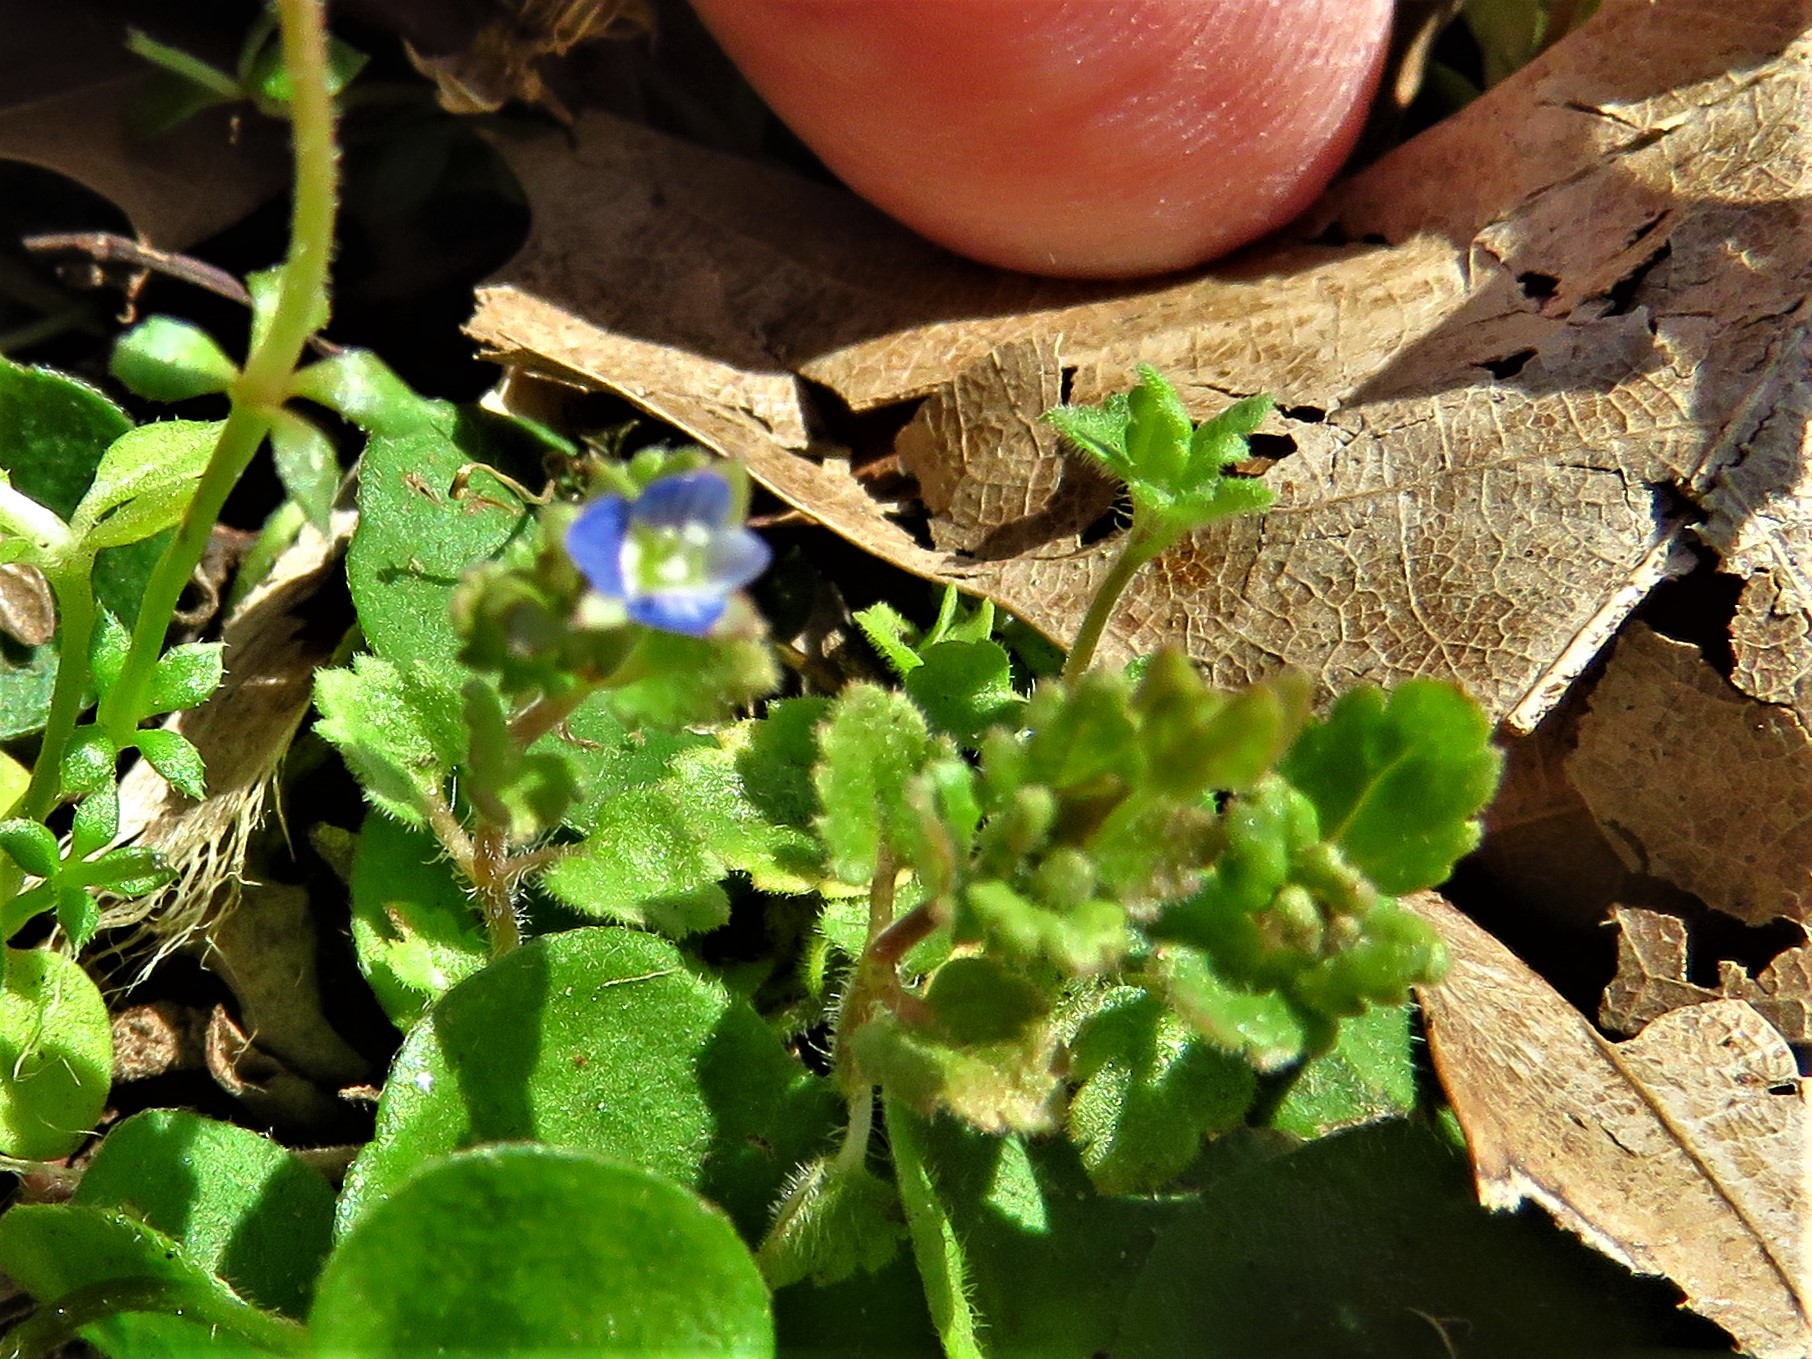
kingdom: Plantae
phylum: Tracheophyta
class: Magnoliopsida
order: Lamiales
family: Plantaginaceae
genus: Veronica
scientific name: Veronica polita
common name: Grey field-speedwell
